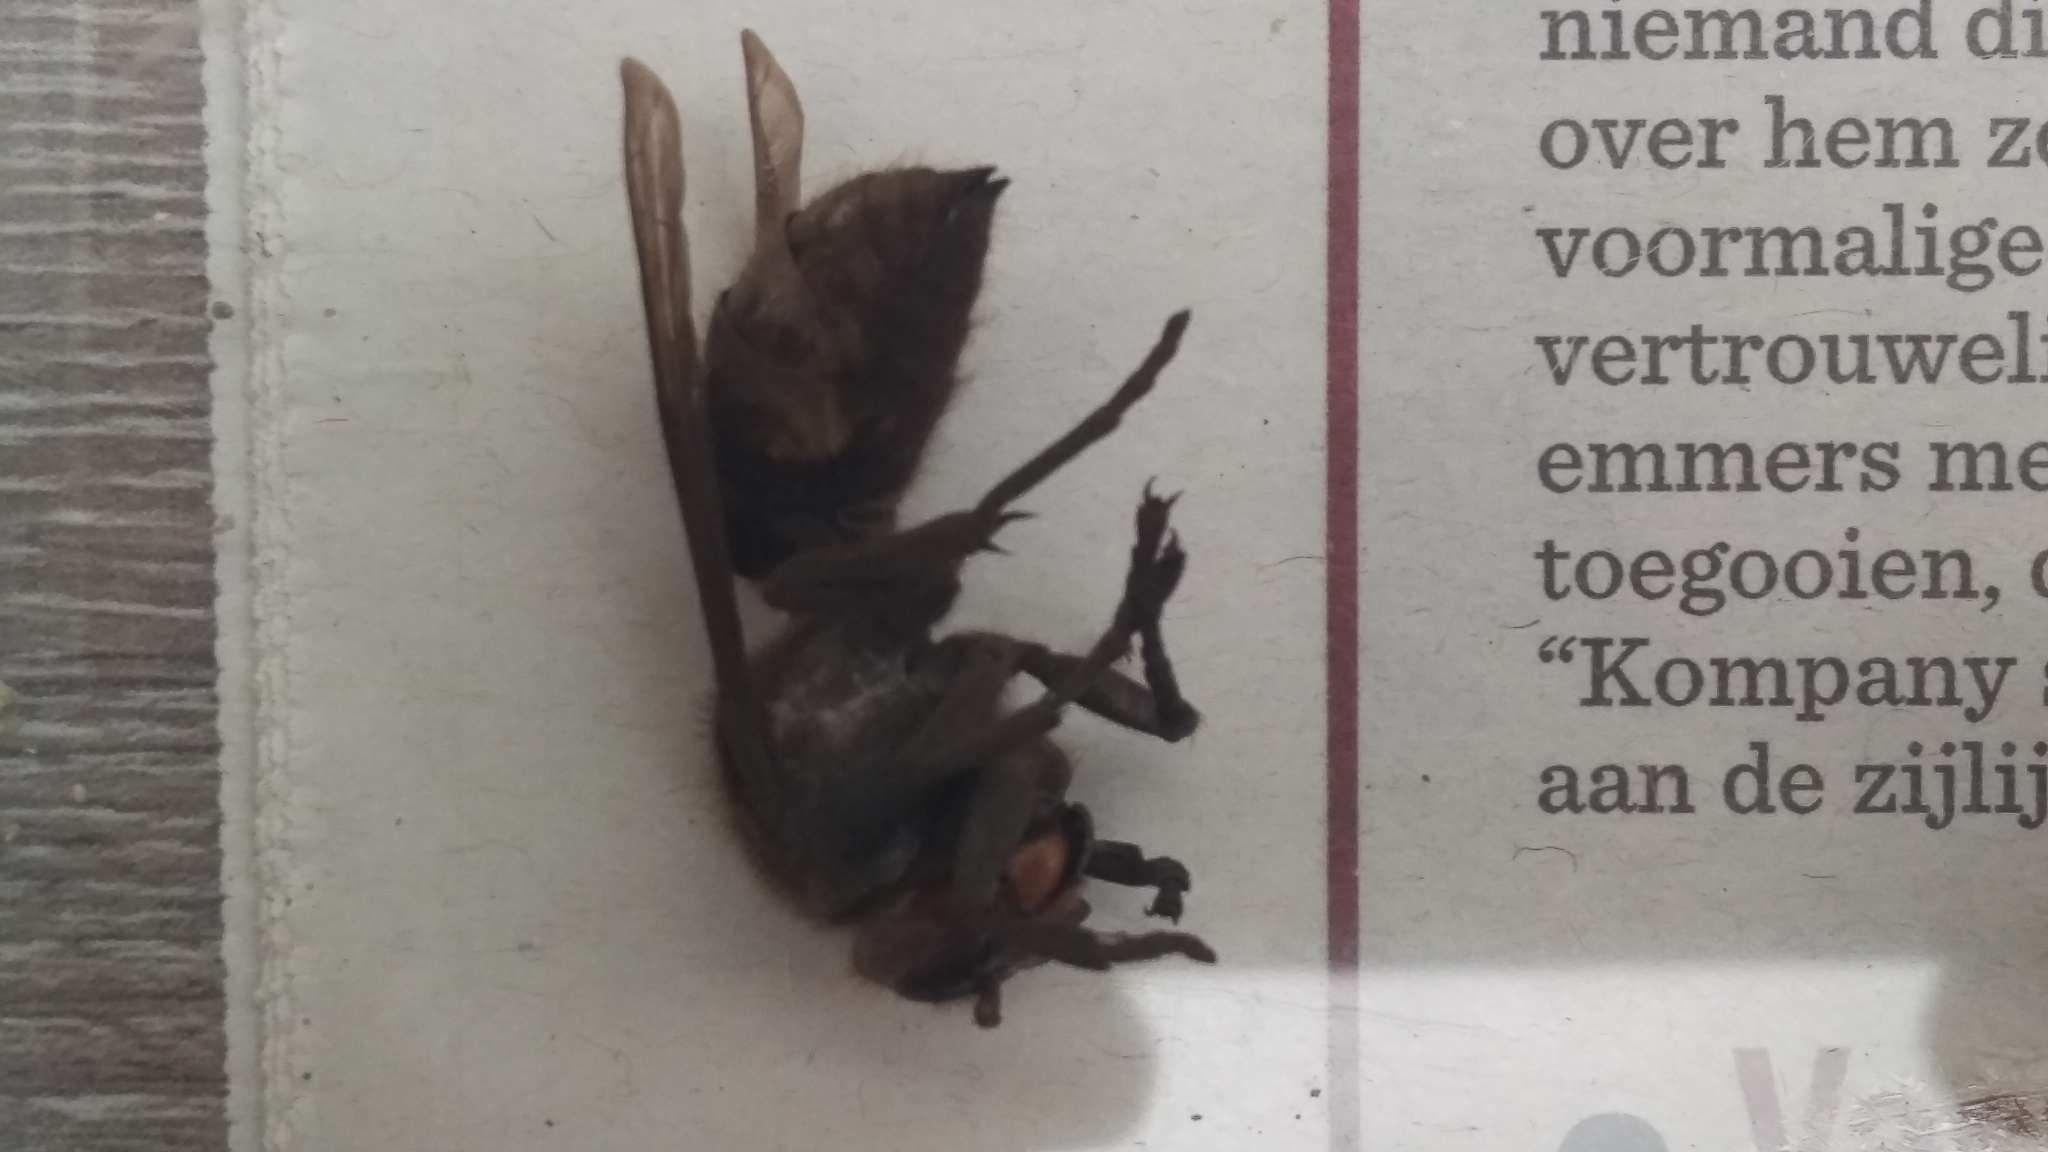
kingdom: Animalia
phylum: Arthropoda
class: Insecta
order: Hymenoptera
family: Vespidae
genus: Vespa
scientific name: Vespa crabro
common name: Hornet
